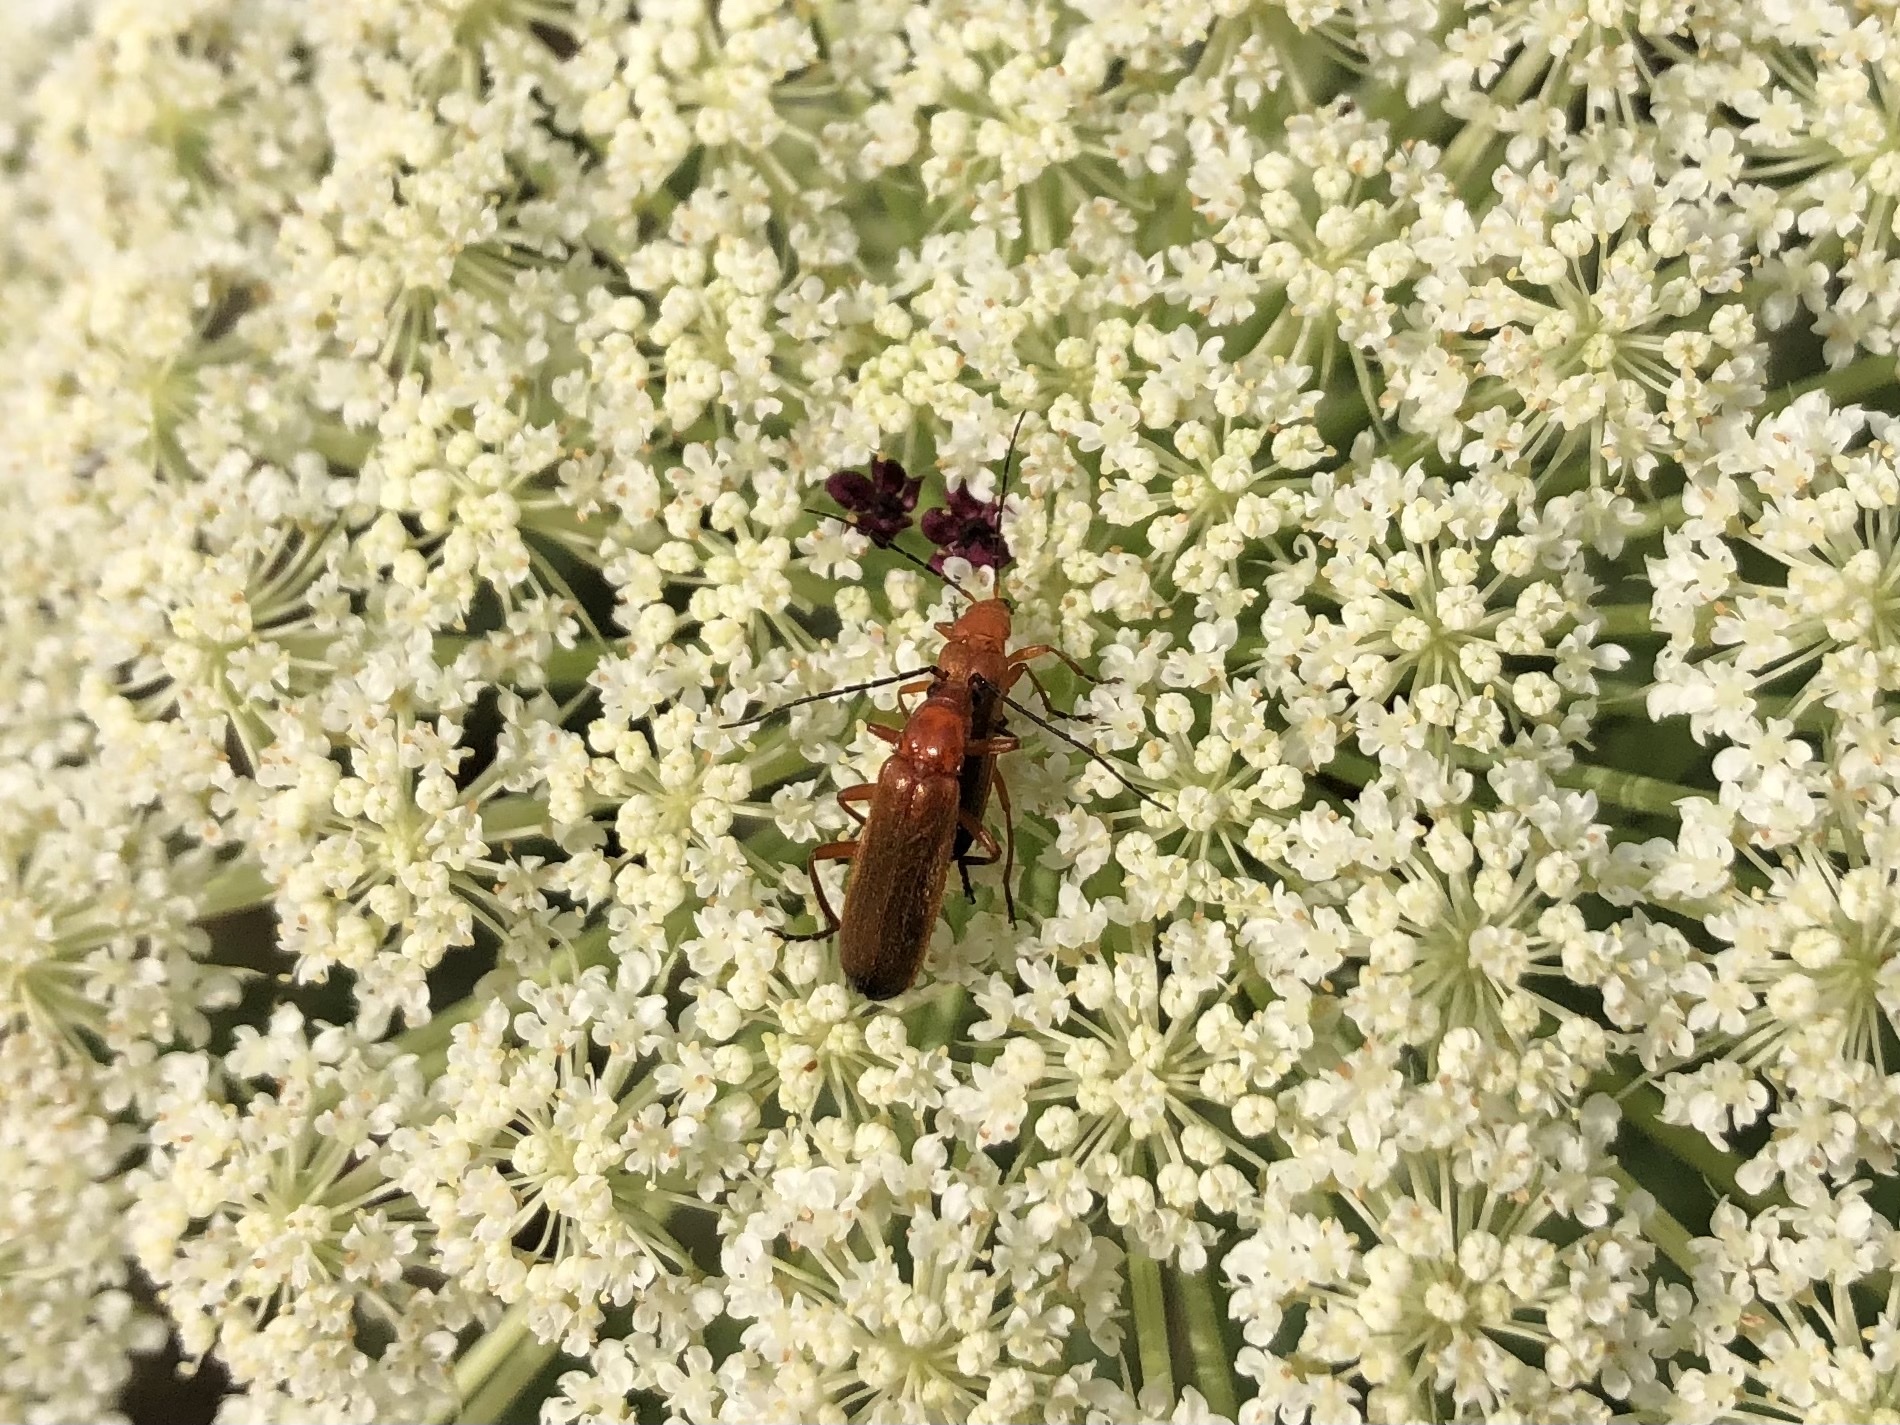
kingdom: Animalia
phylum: Arthropoda
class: Insecta
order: Coleoptera
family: Cantharidae
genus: Rhagonycha
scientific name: Rhagonycha fulva
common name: Common red soldier beetle
